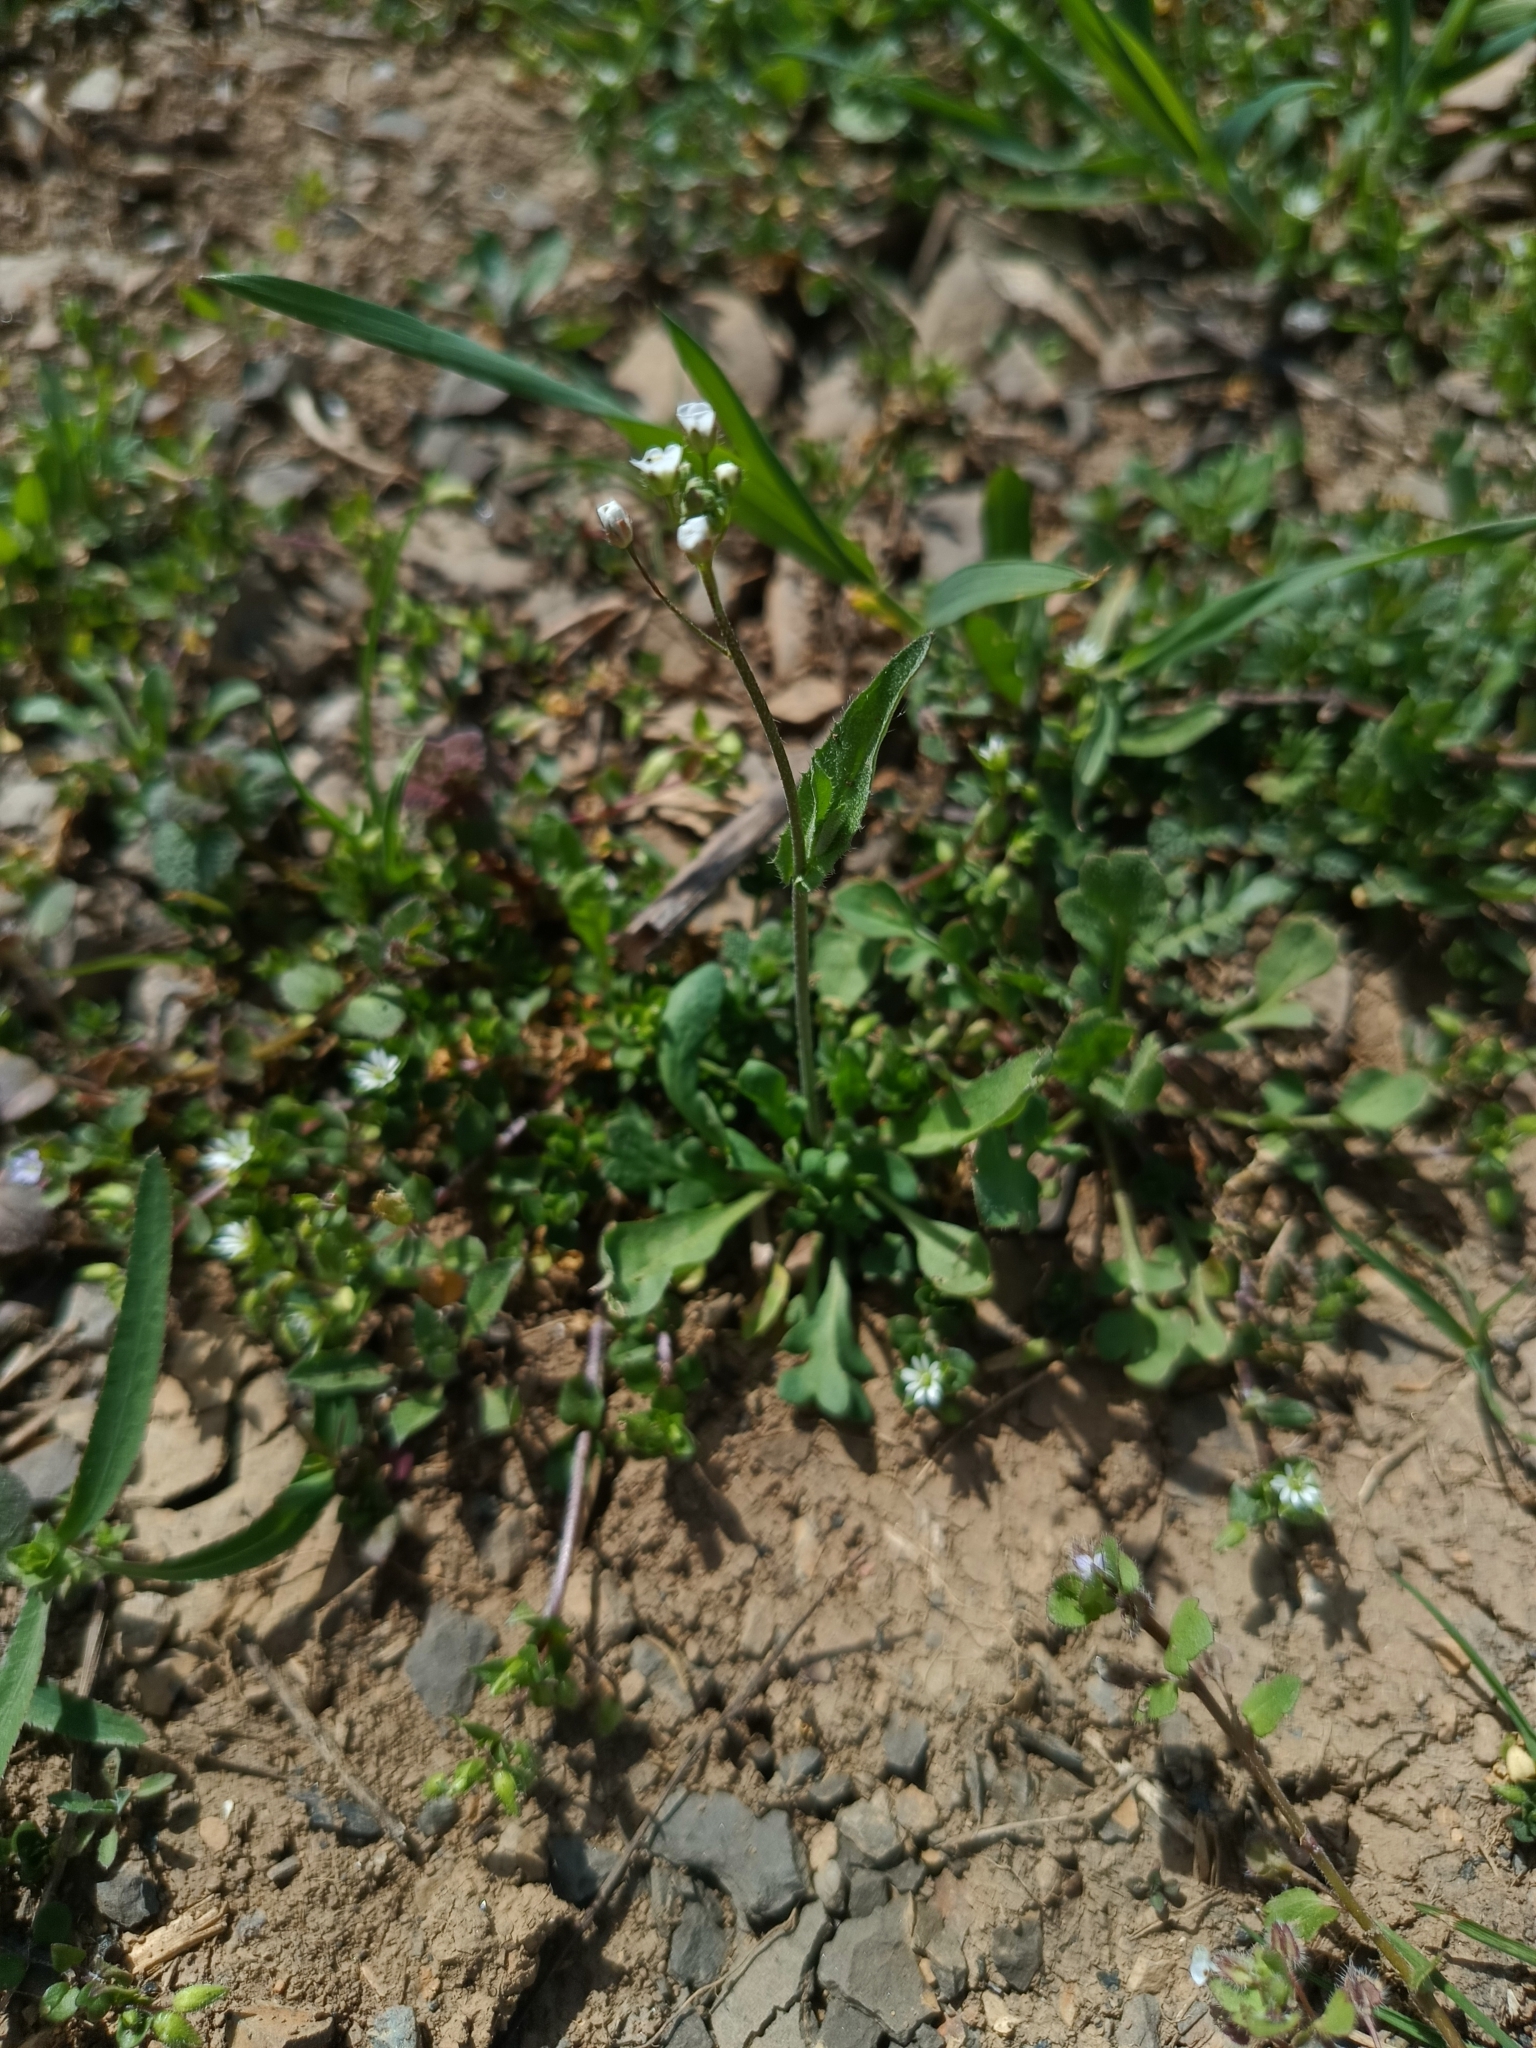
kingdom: Plantae
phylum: Tracheophyta
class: Magnoliopsida
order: Brassicales
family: Brassicaceae
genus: Capsella
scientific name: Capsella bursa-pastoris
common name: Shepherd's purse
